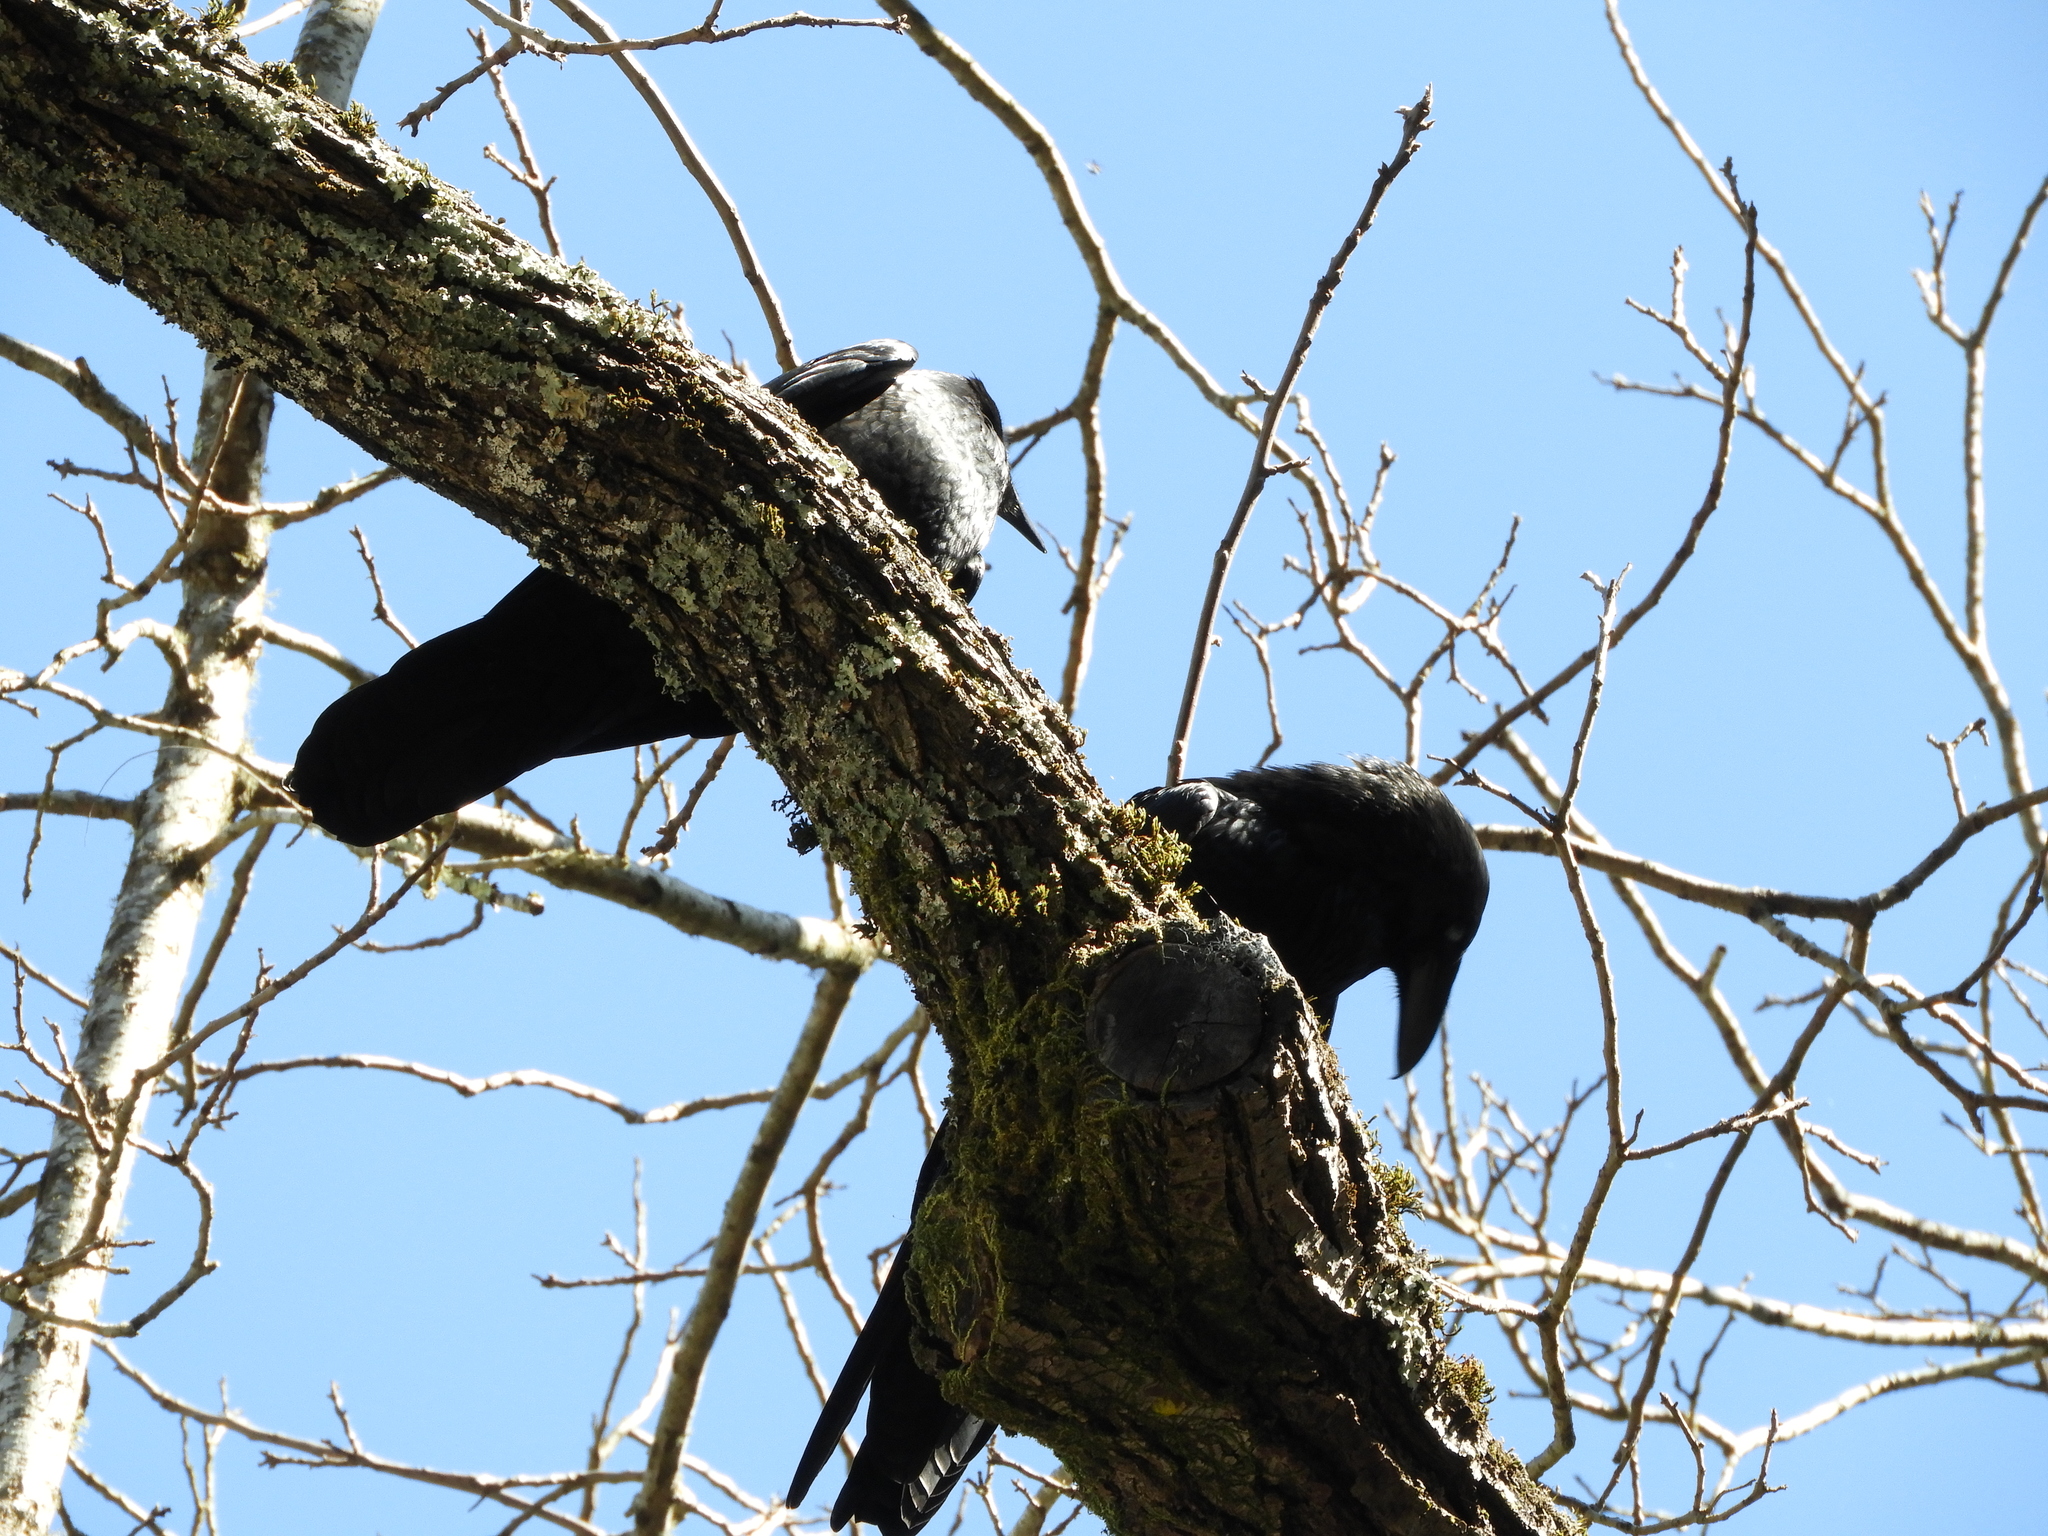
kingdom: Animalia
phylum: Chordata
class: Aves
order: Passeriformes
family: Corvidae
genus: Corvus
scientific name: Corvus corax
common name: Common raven
